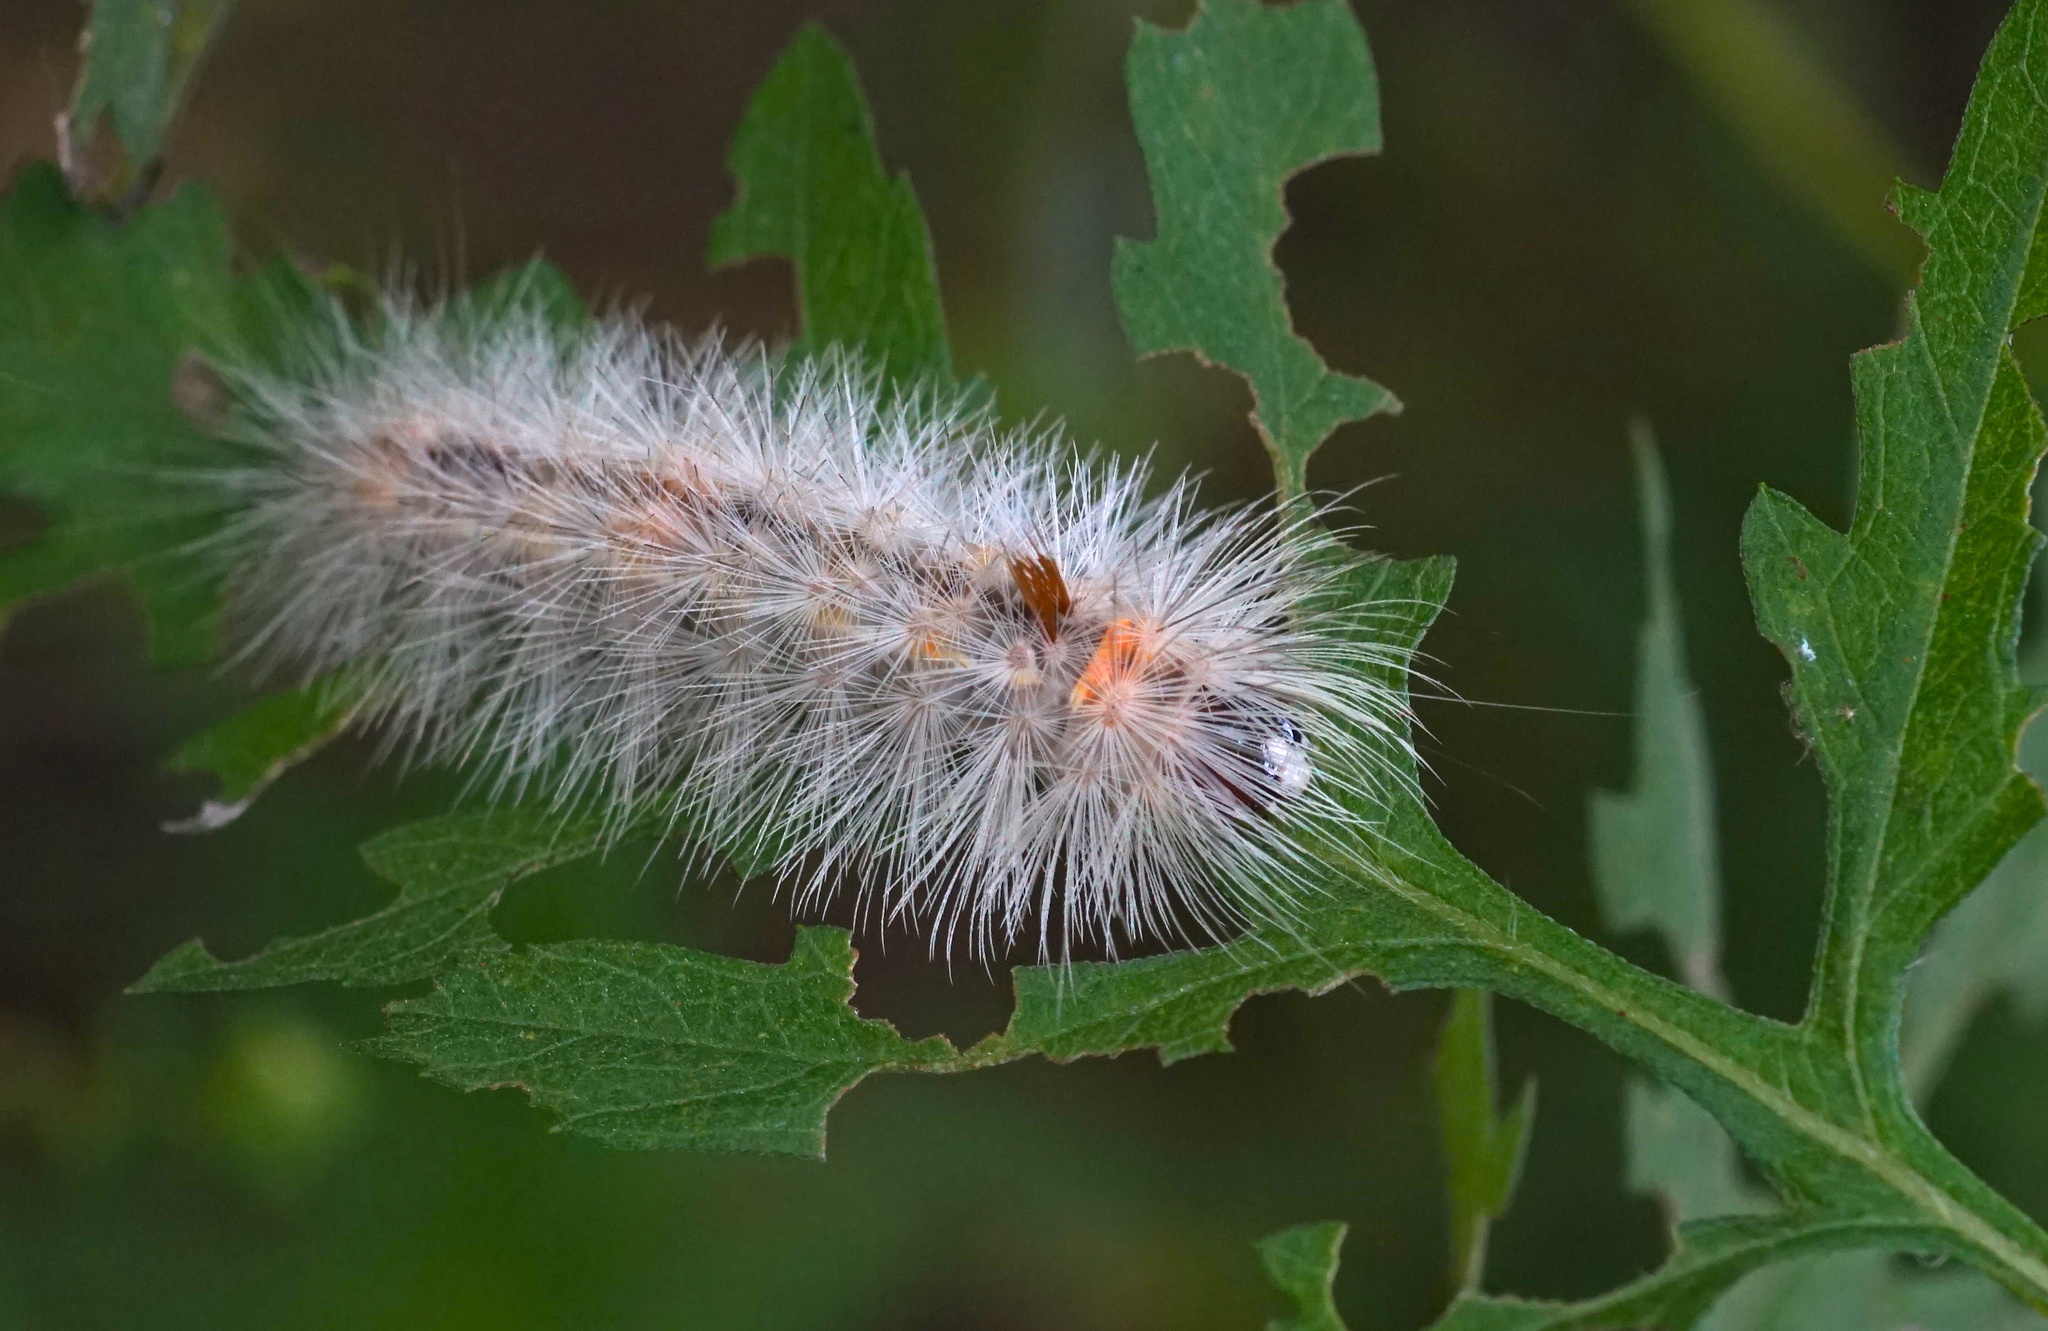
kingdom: Animalia
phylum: Arthropoda
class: Insecta
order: Lepidoptera
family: Erebidae
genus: Lymire
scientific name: Lymire edwardsii
